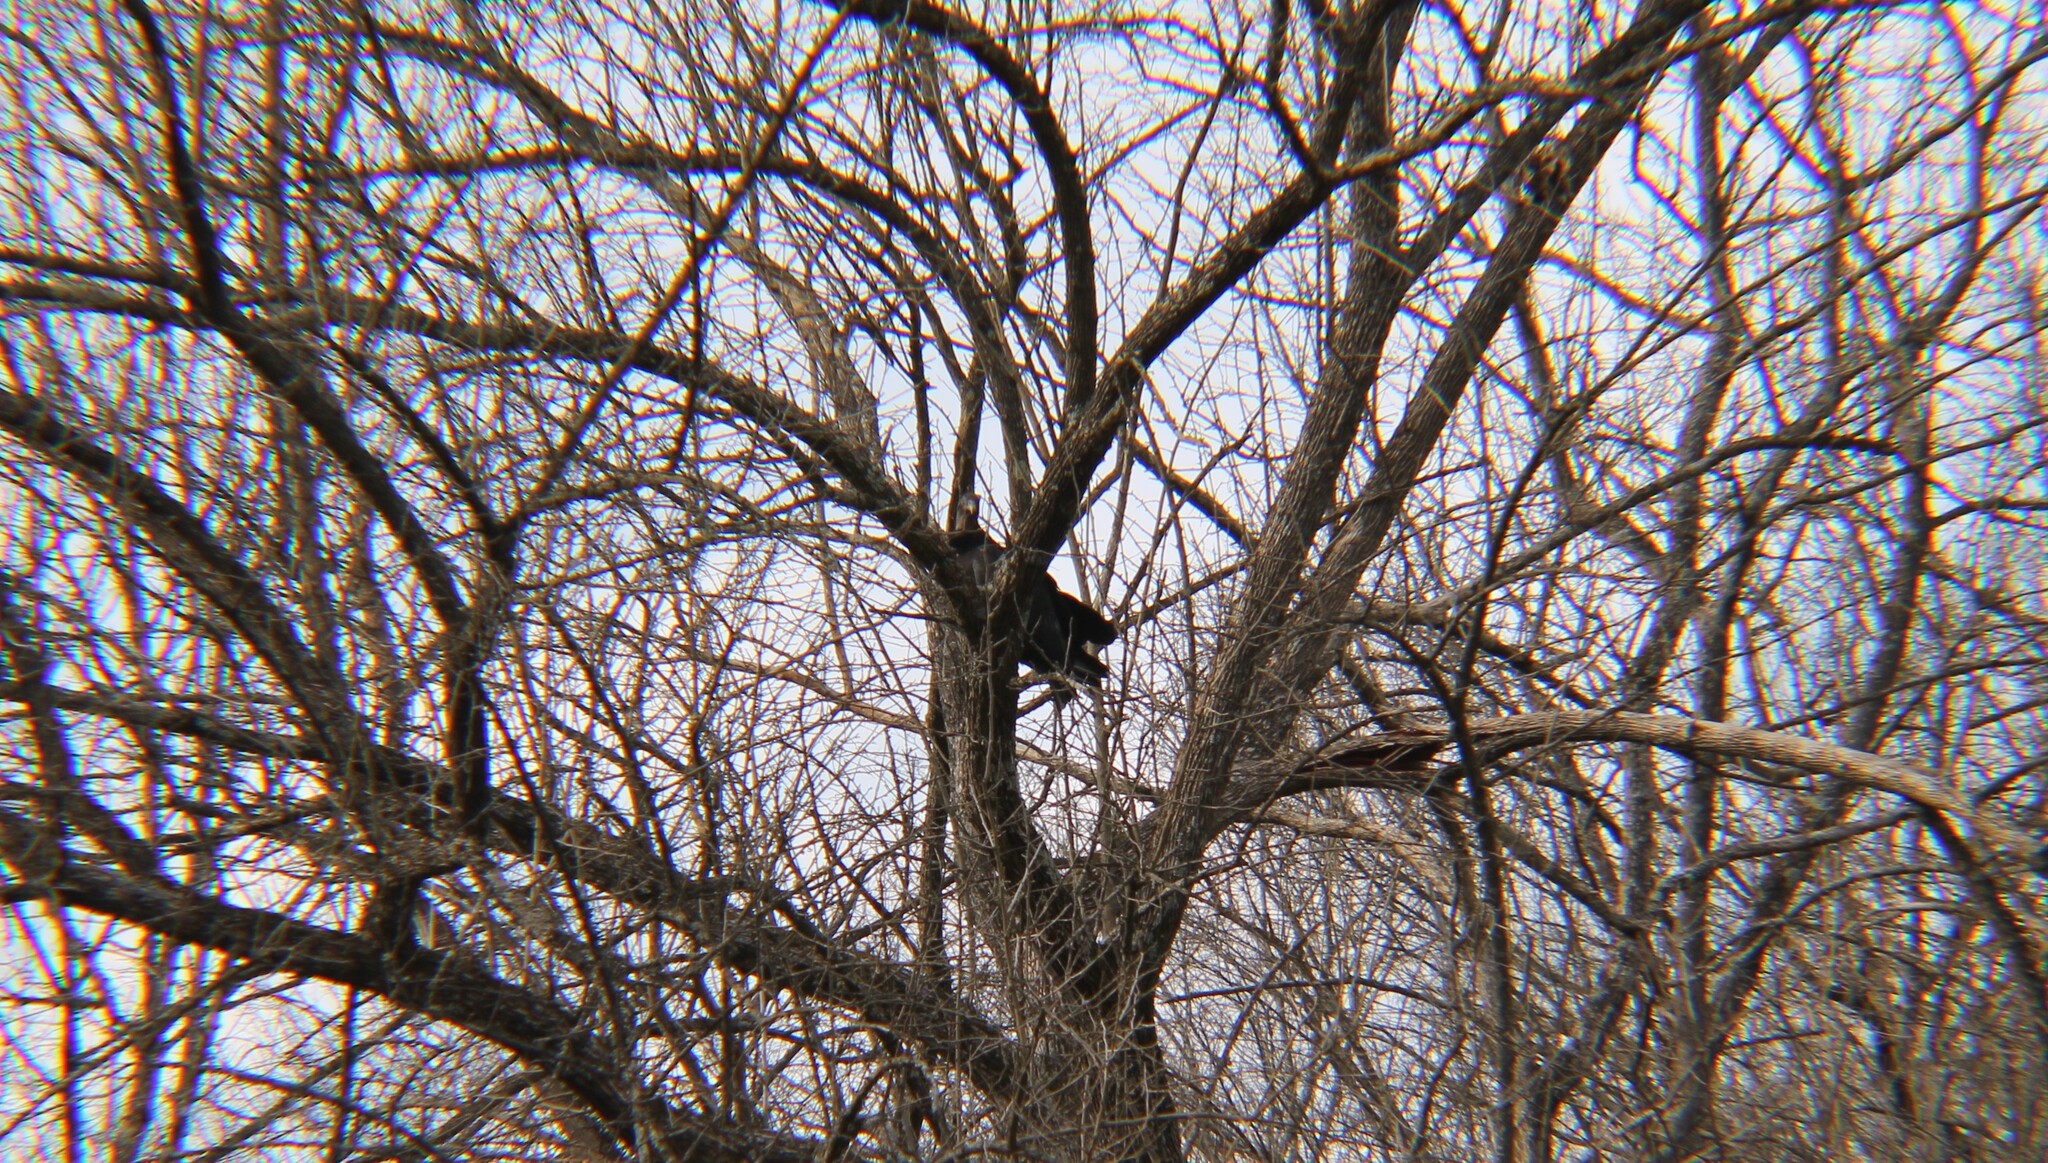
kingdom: Animalia
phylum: Chordata
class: Aves
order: Accipitriformes
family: Cathartidae
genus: Coragyps
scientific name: Coragyps atratus
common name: Black vulture
